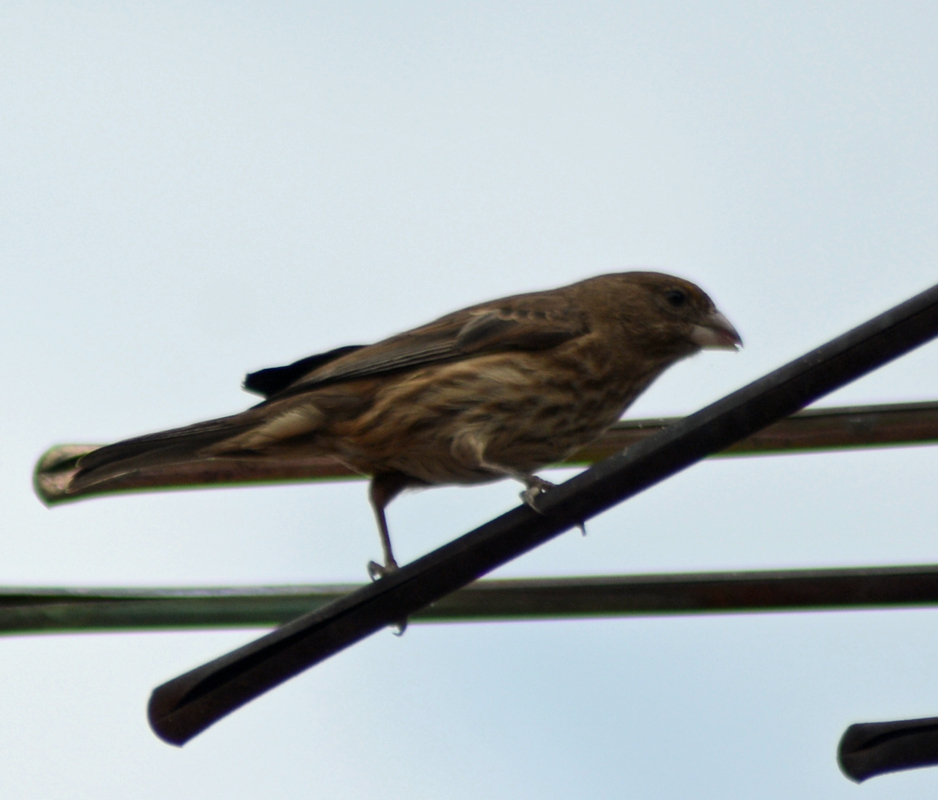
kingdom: Animalia
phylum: Chordata
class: Aves
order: Passeriformes
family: Fringillidae
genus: Haemorhous
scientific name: Haemorhous mexicanus
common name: House finch
